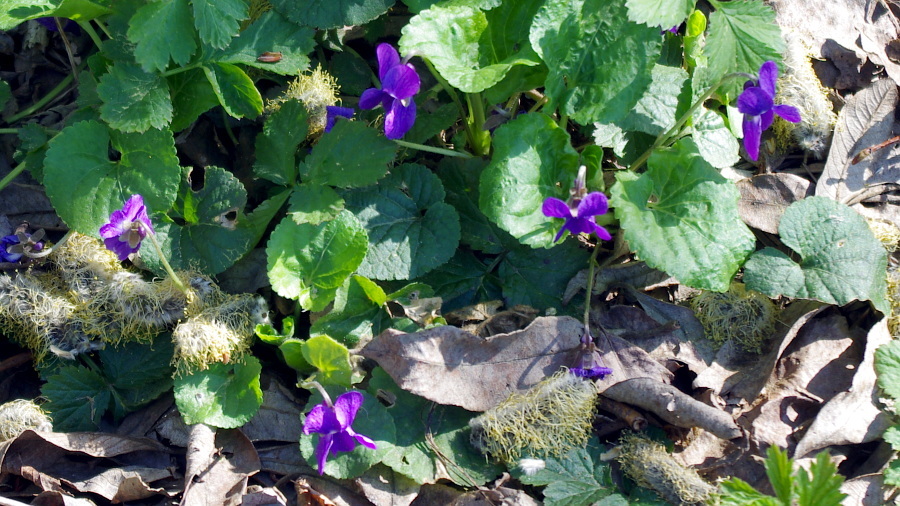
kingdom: Plantae
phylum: Tracheophyta
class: Magnoliopsida
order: Malpighiales
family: Violaceae
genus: Viola
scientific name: Viola odorata
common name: Sweet violet
